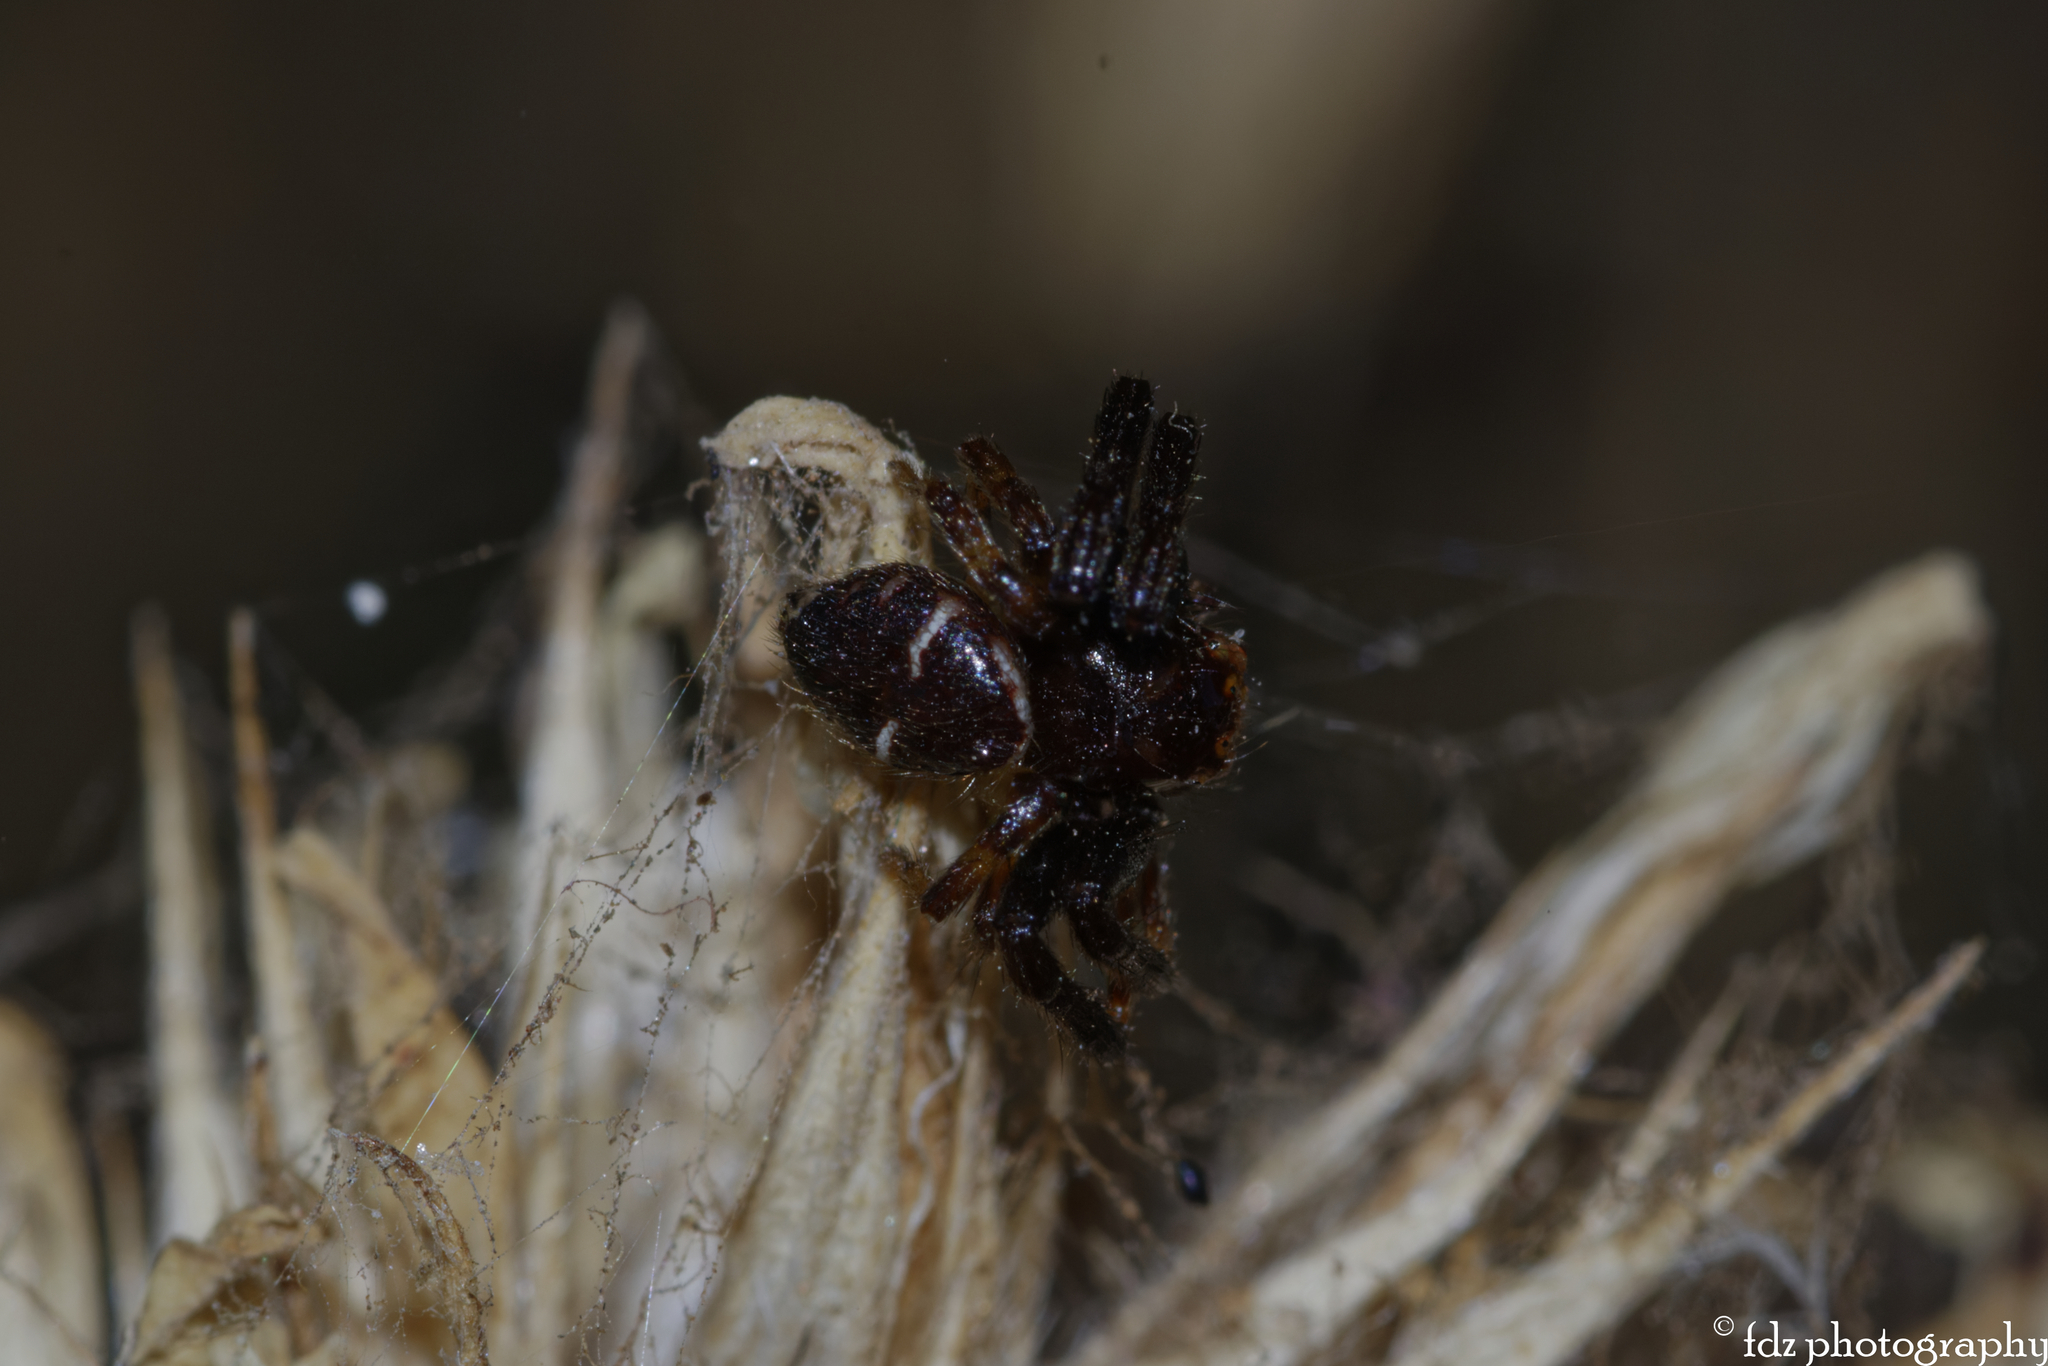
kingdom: Animalia
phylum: Arthropoda
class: Arachnida
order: Araneae
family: Thomisidae
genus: Synema
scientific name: Synema globosum
